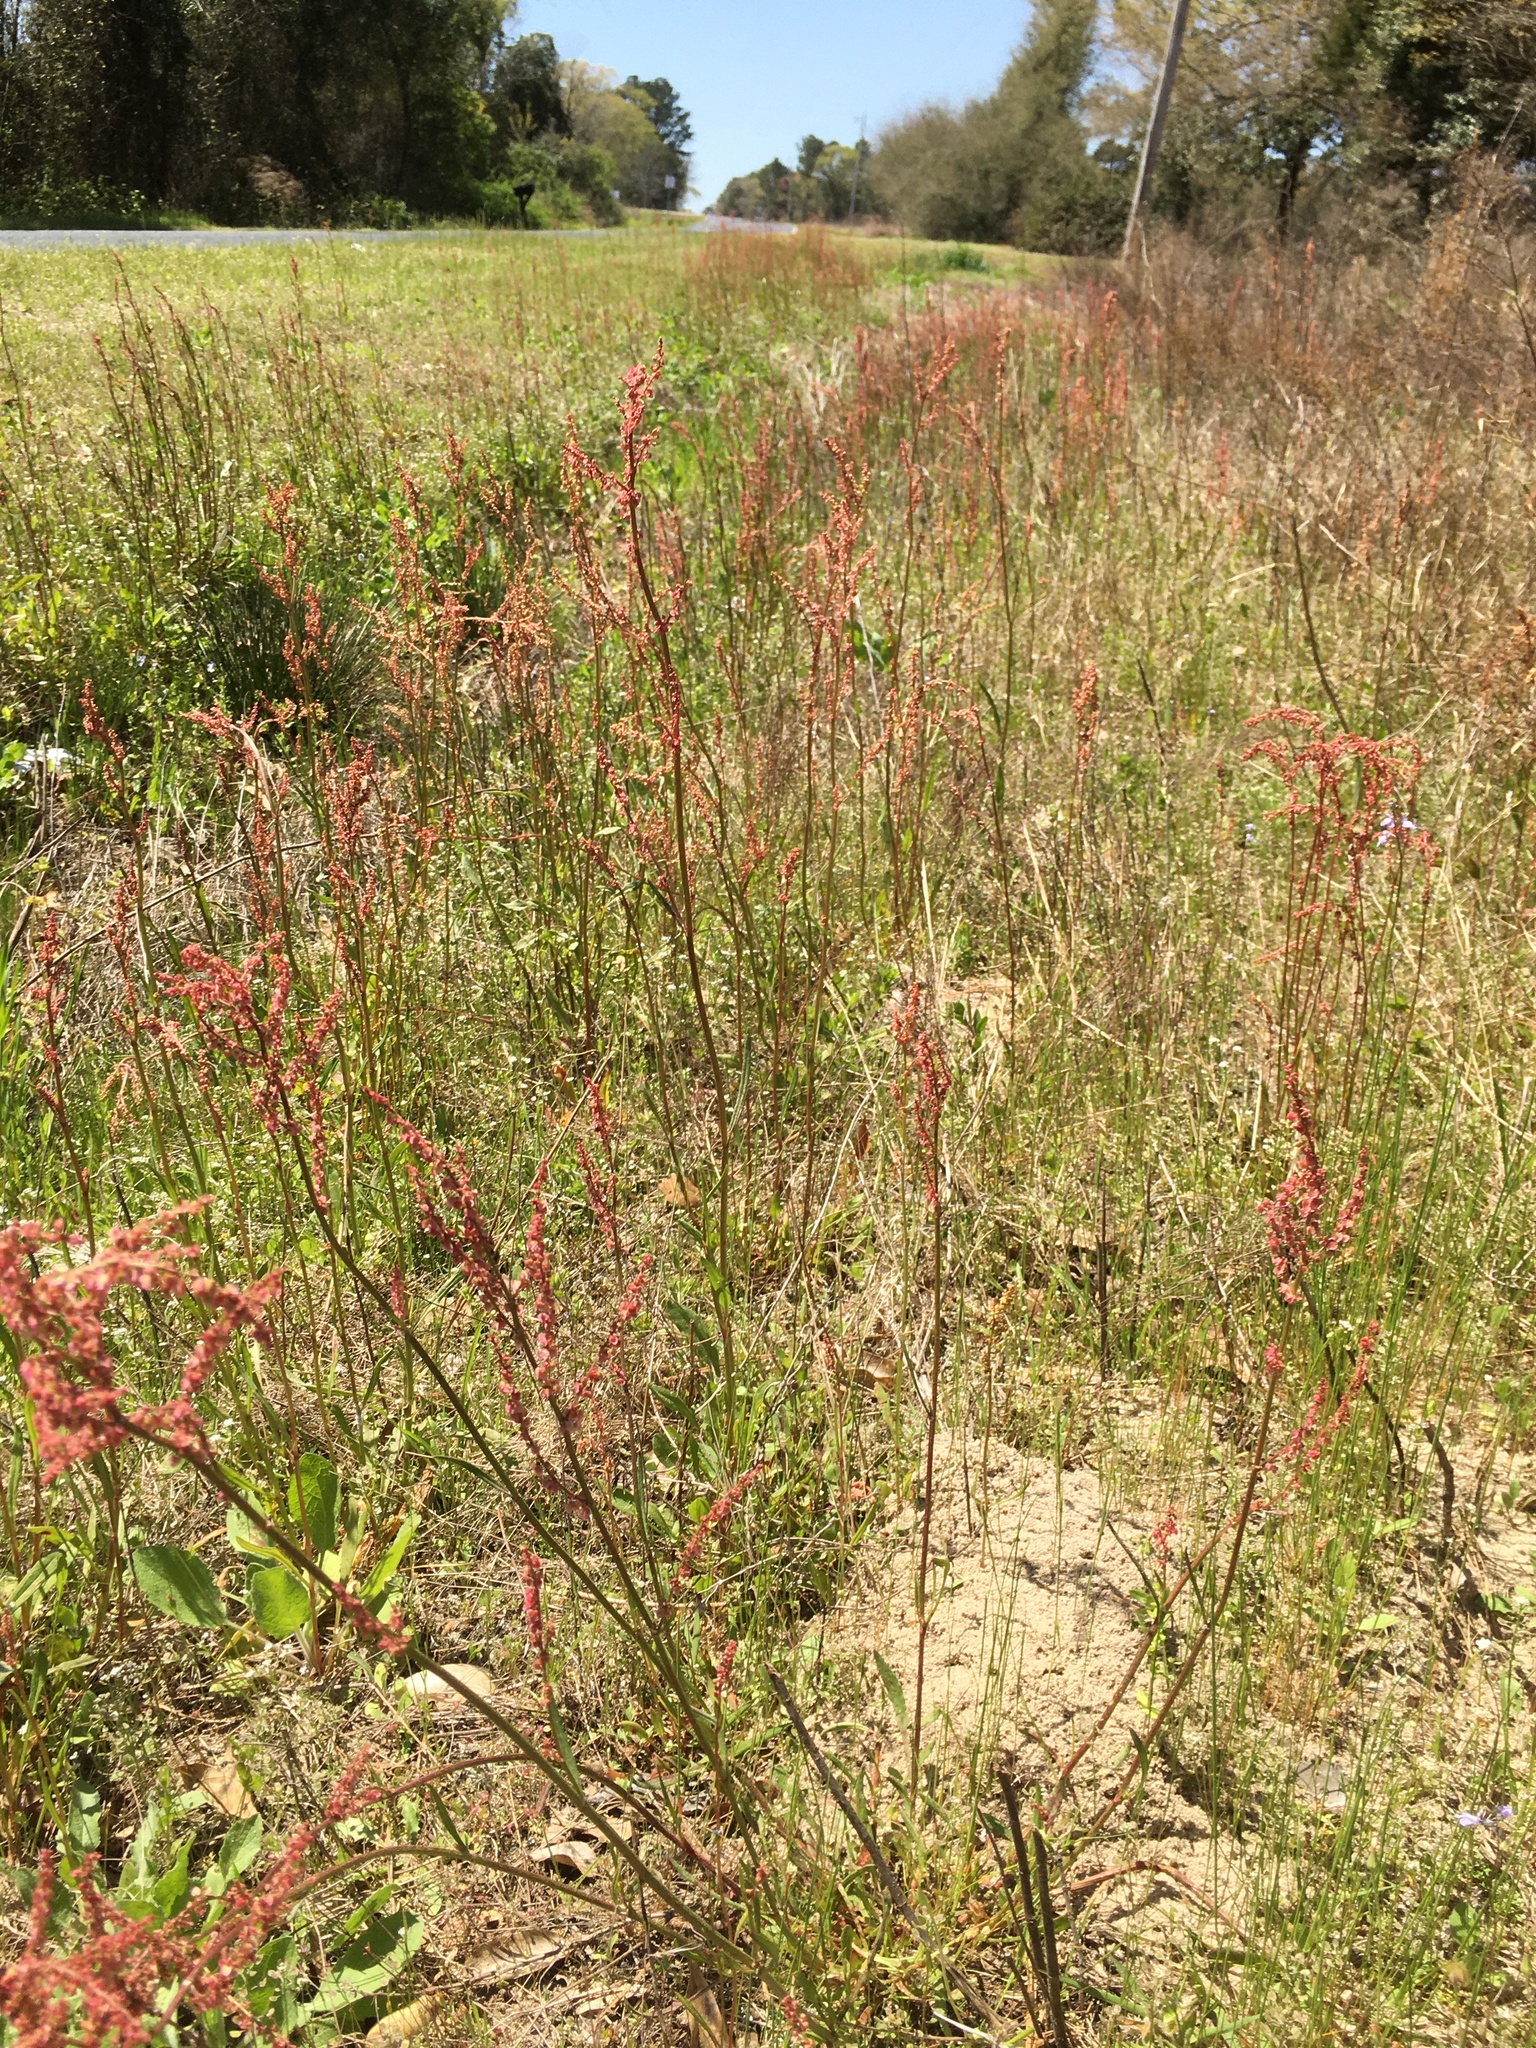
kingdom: Plantae
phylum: Tracheophyta
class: Magnoliopsida
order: Caryophyllales
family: Polygonaceae
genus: Rumex
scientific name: Rumex hastatulus
